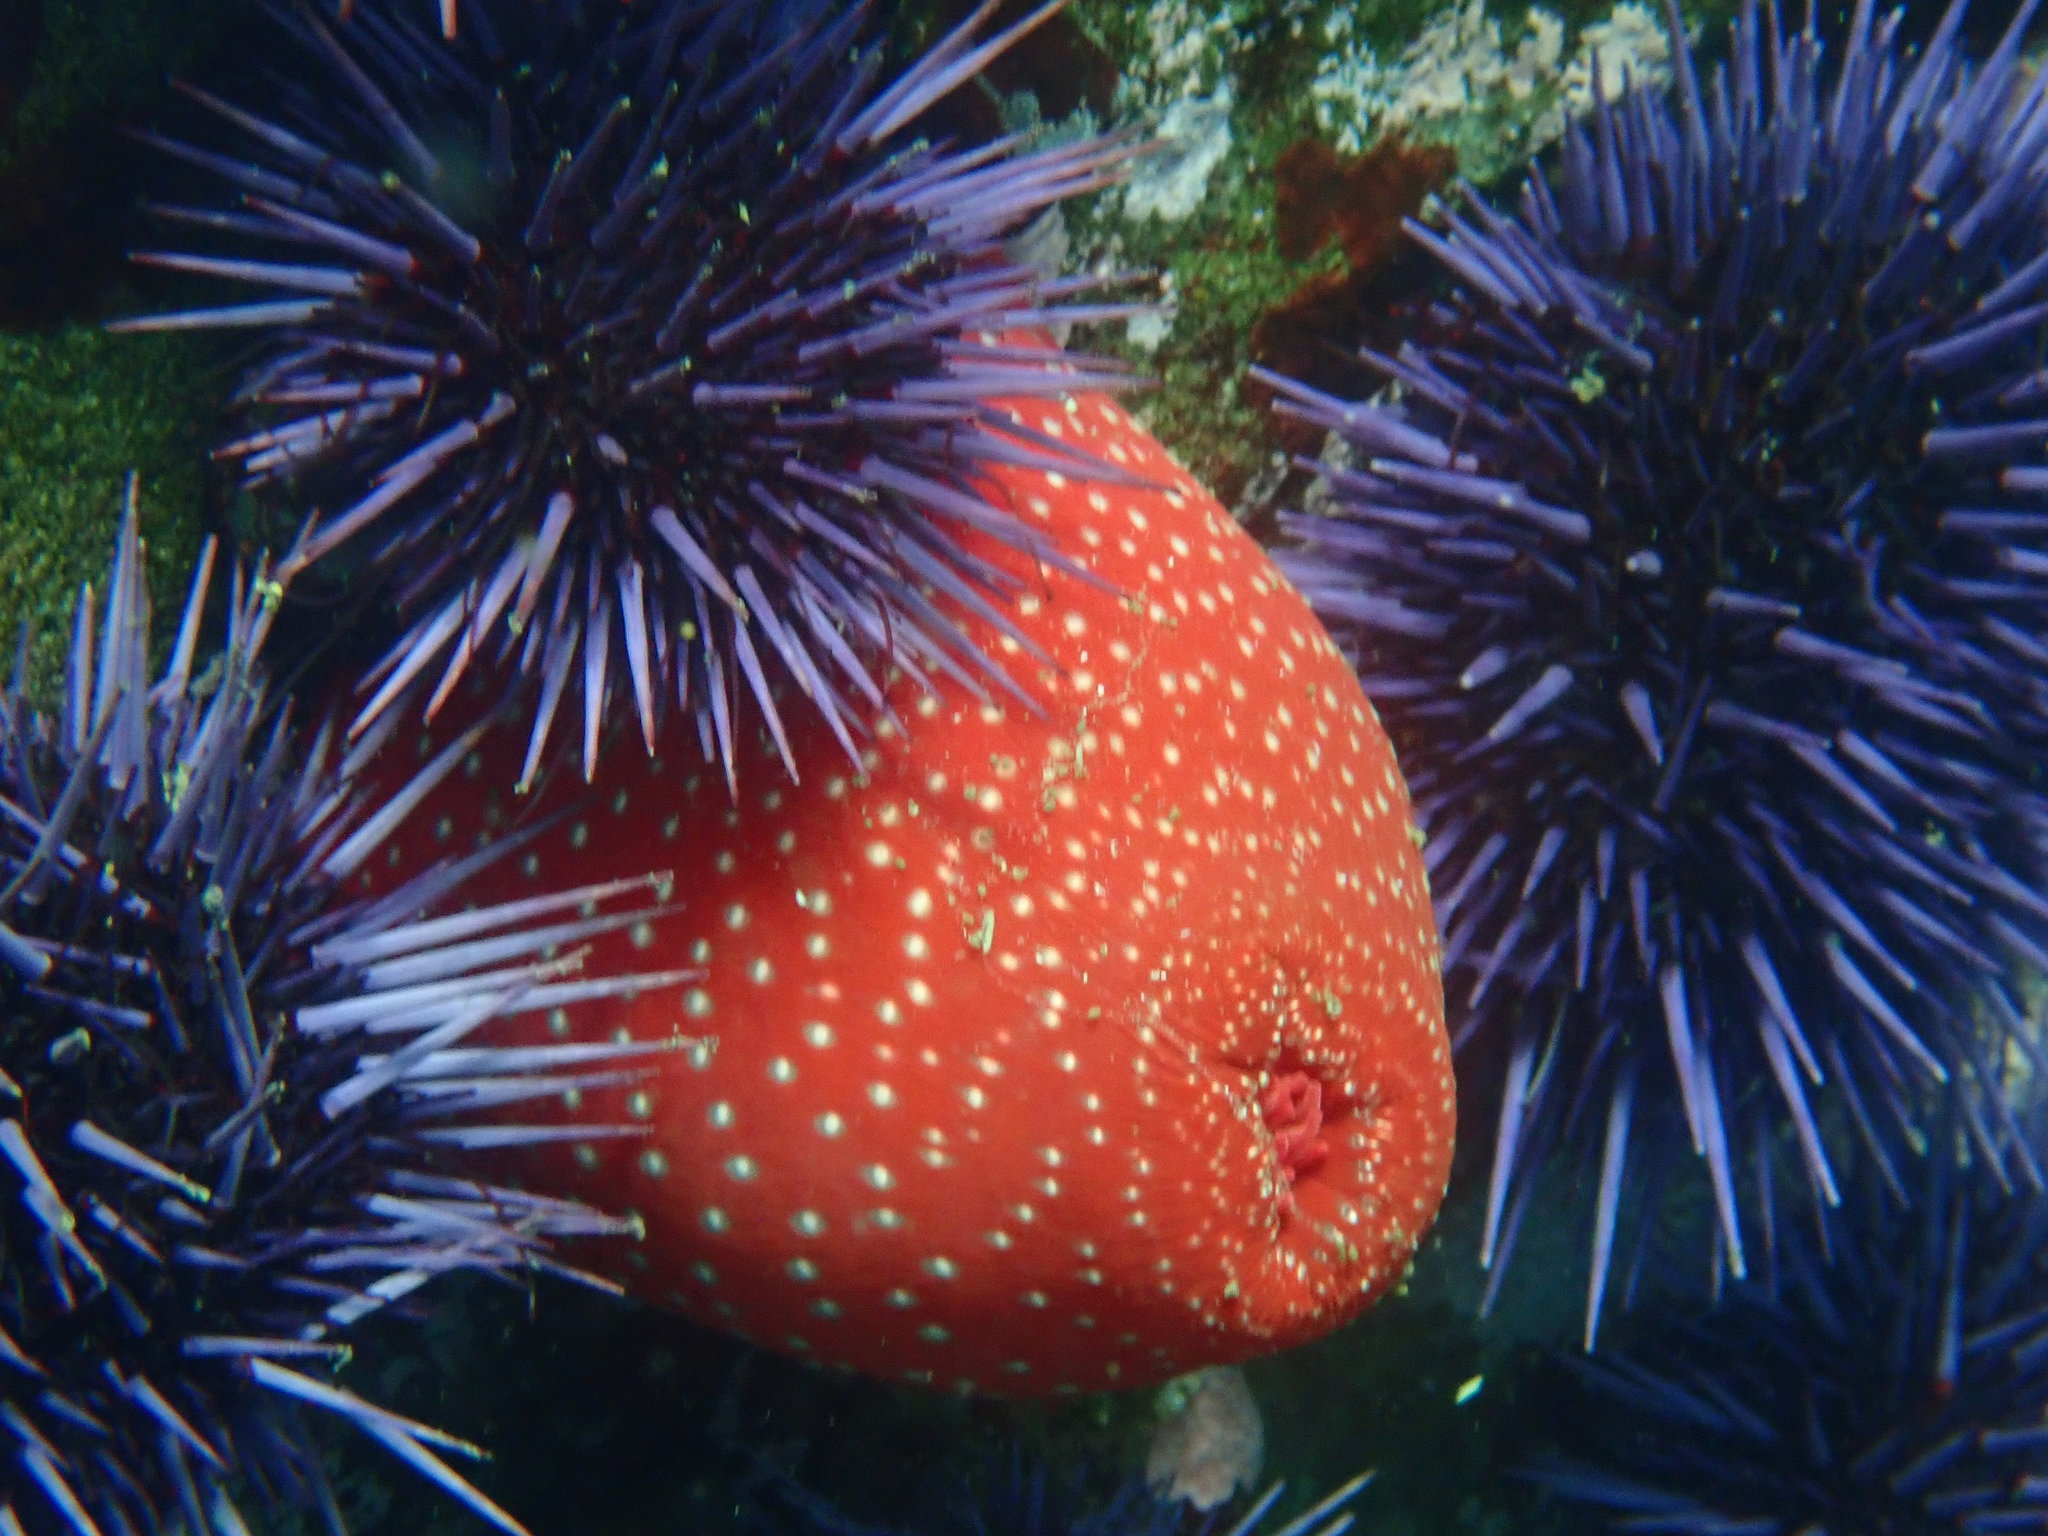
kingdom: Animalia
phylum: Cnidaria
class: Anthozoa
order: Actiniaria
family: Actiniidae
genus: Cribrinopsis
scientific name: Cribrinopsis albopunctata
